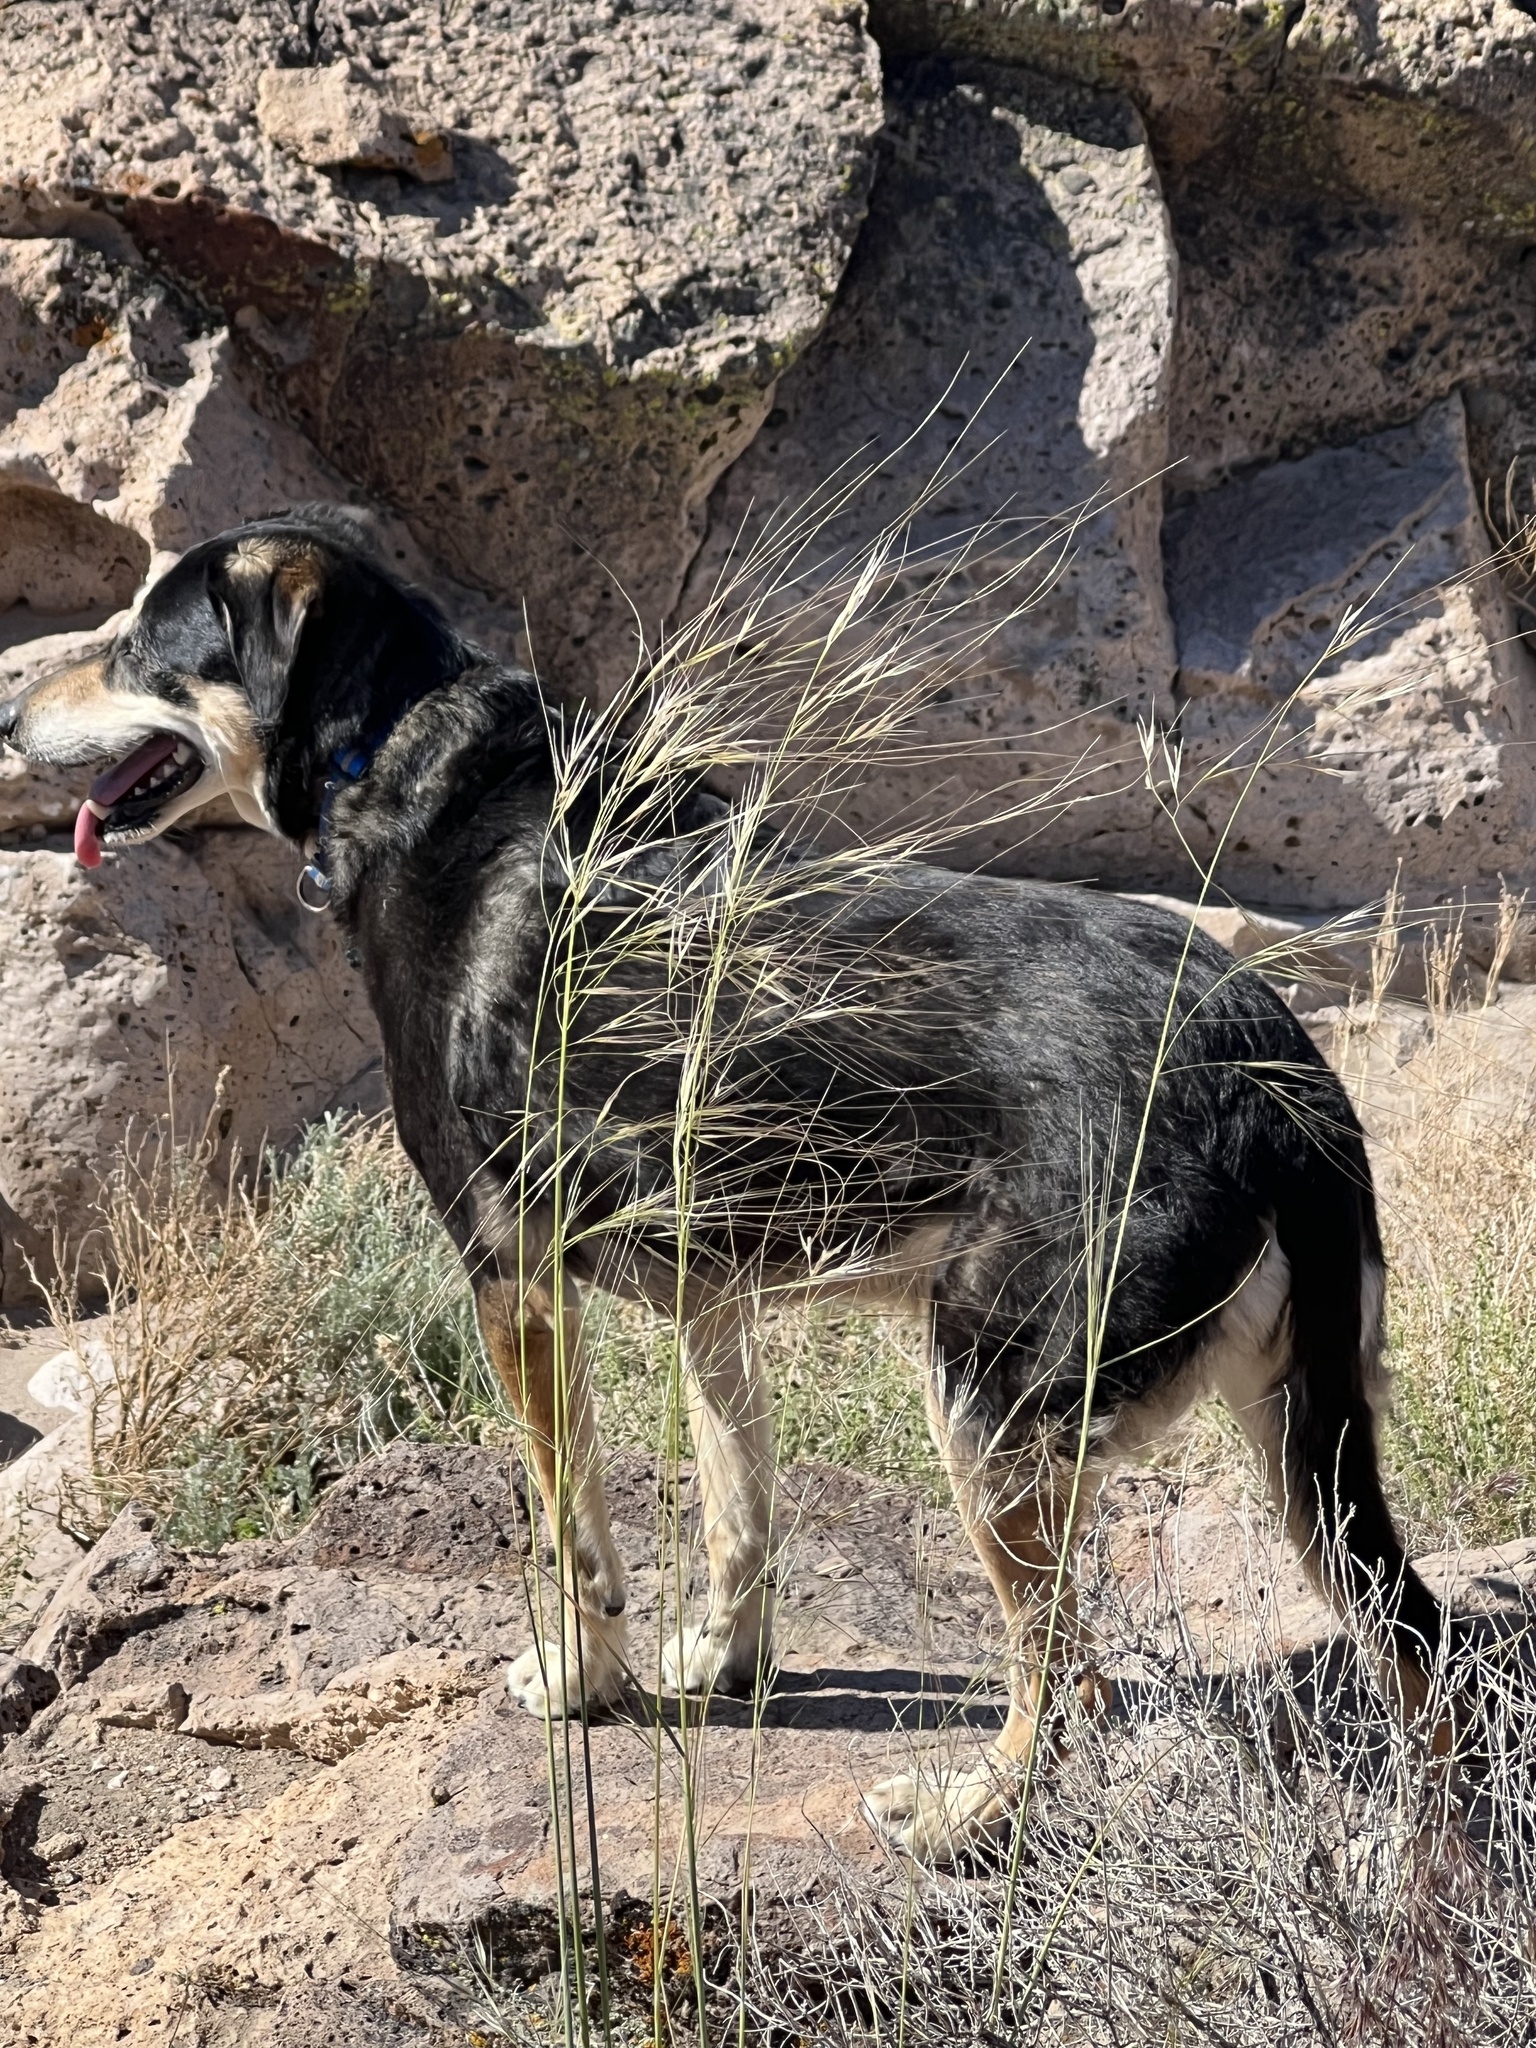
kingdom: Plantae
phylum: Tracheophyta
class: Liliopsida
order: Poales
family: Poaceae
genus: Hesperostipa
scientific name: Hesperostipa comata
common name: Needle-and-thread grass
